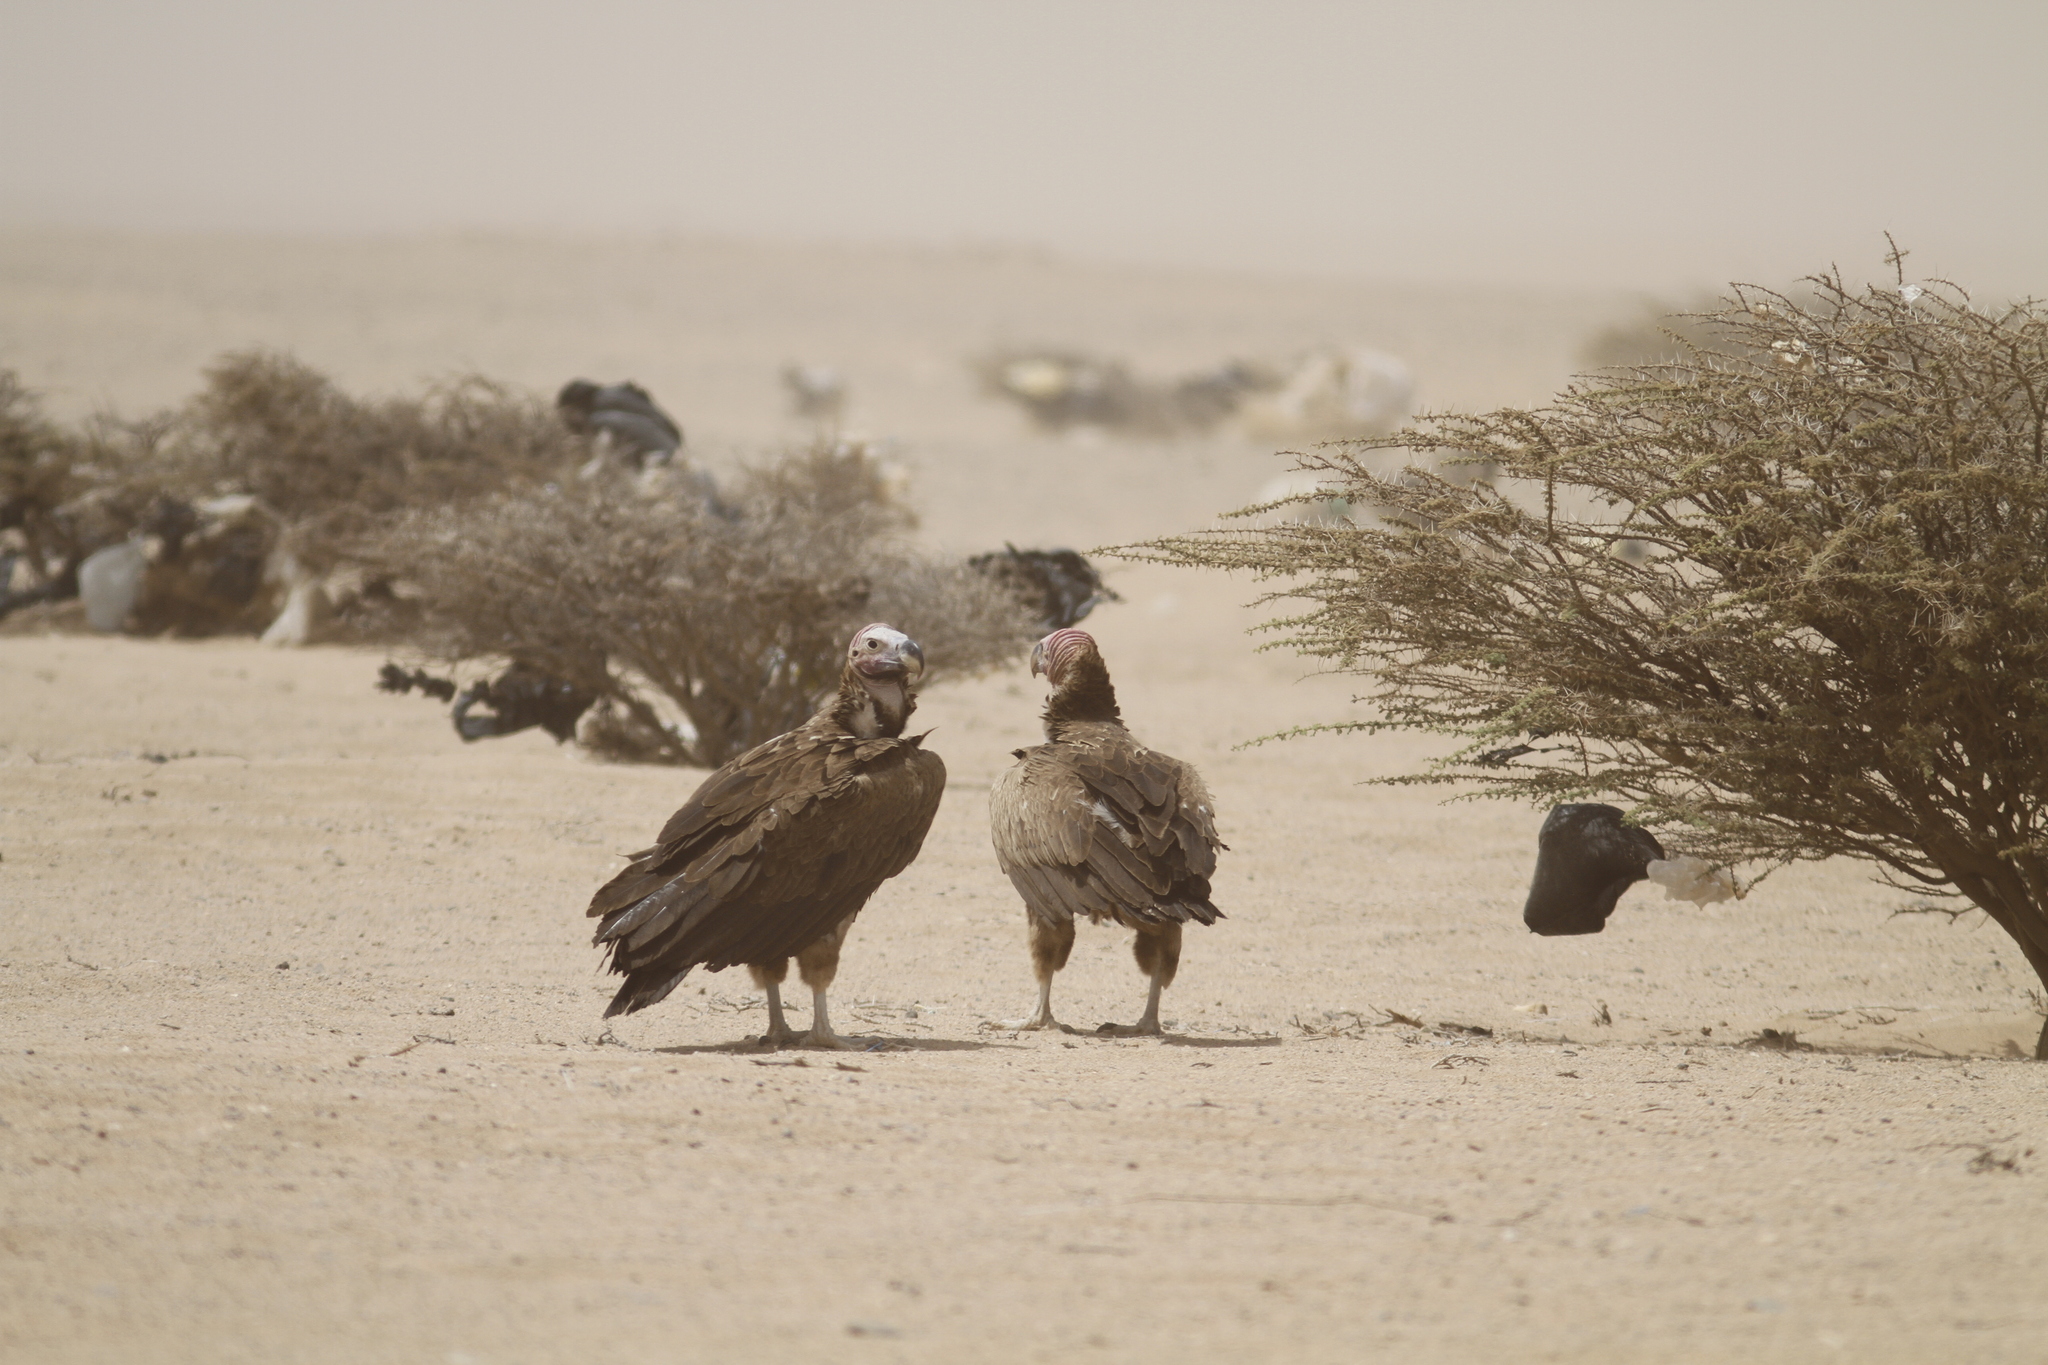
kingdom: Animalia
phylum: Chordata
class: Aves
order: Accipitriformes
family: Accipitridae
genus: Torgos
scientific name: Torgos tracheliotos
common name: Lappet-faced vulture
